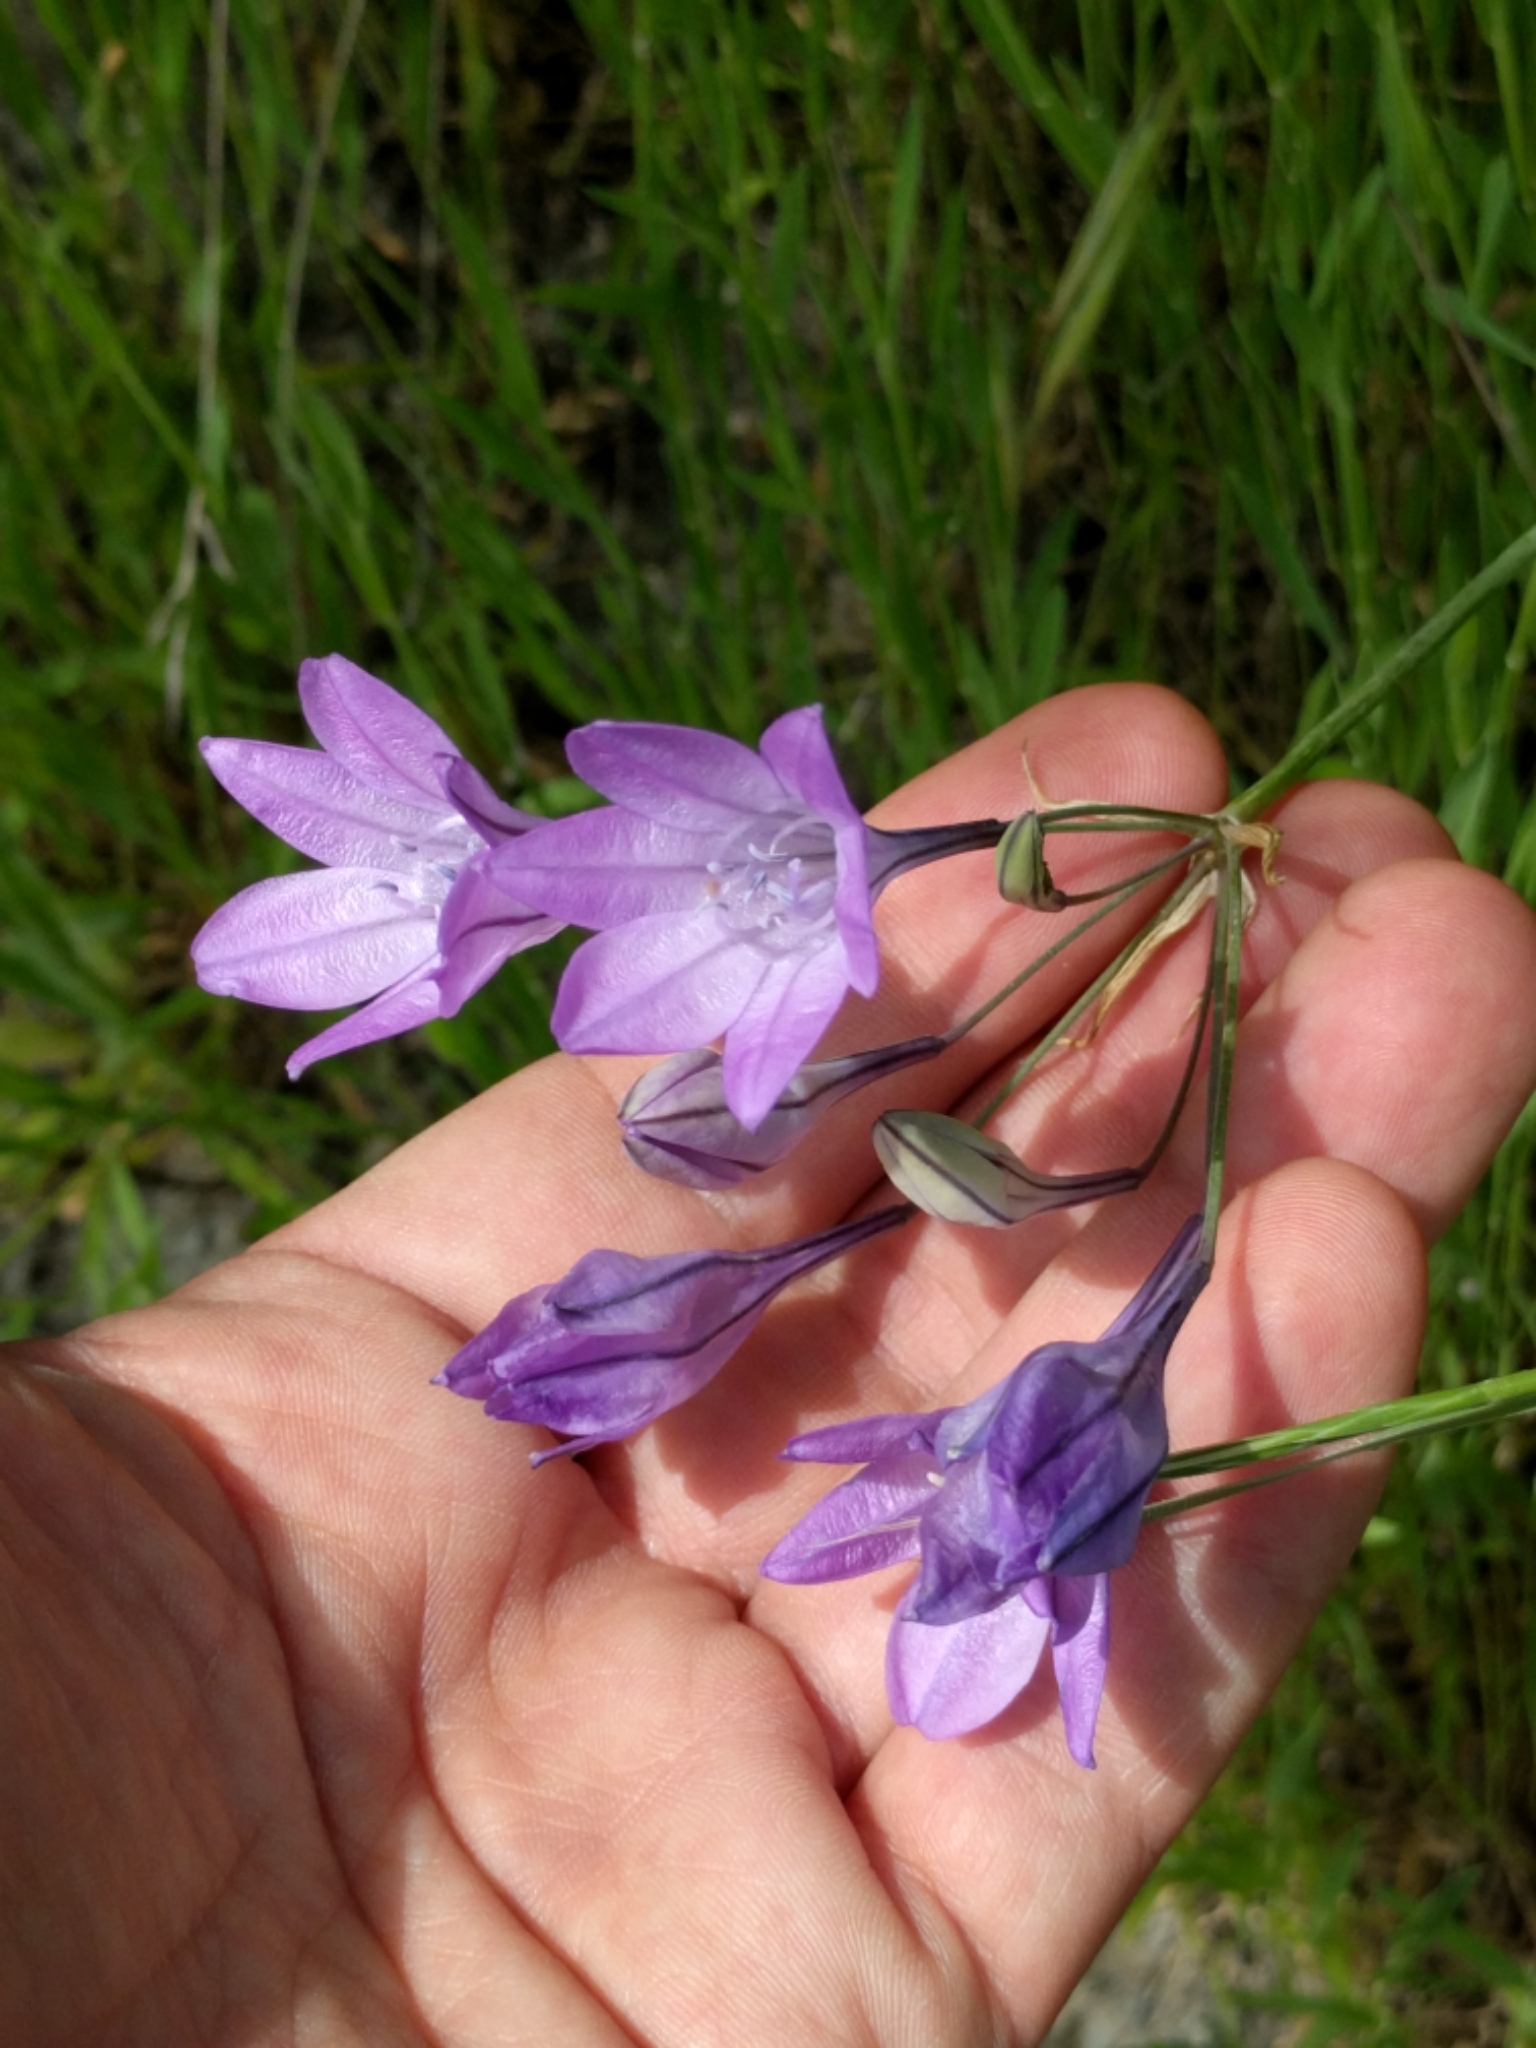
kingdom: Plantae
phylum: Tracheophyta
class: Liliopsida
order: Asparagales
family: Asparagaceae
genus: Triteleia
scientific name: Triteleia laxa
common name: Triplet-lily
